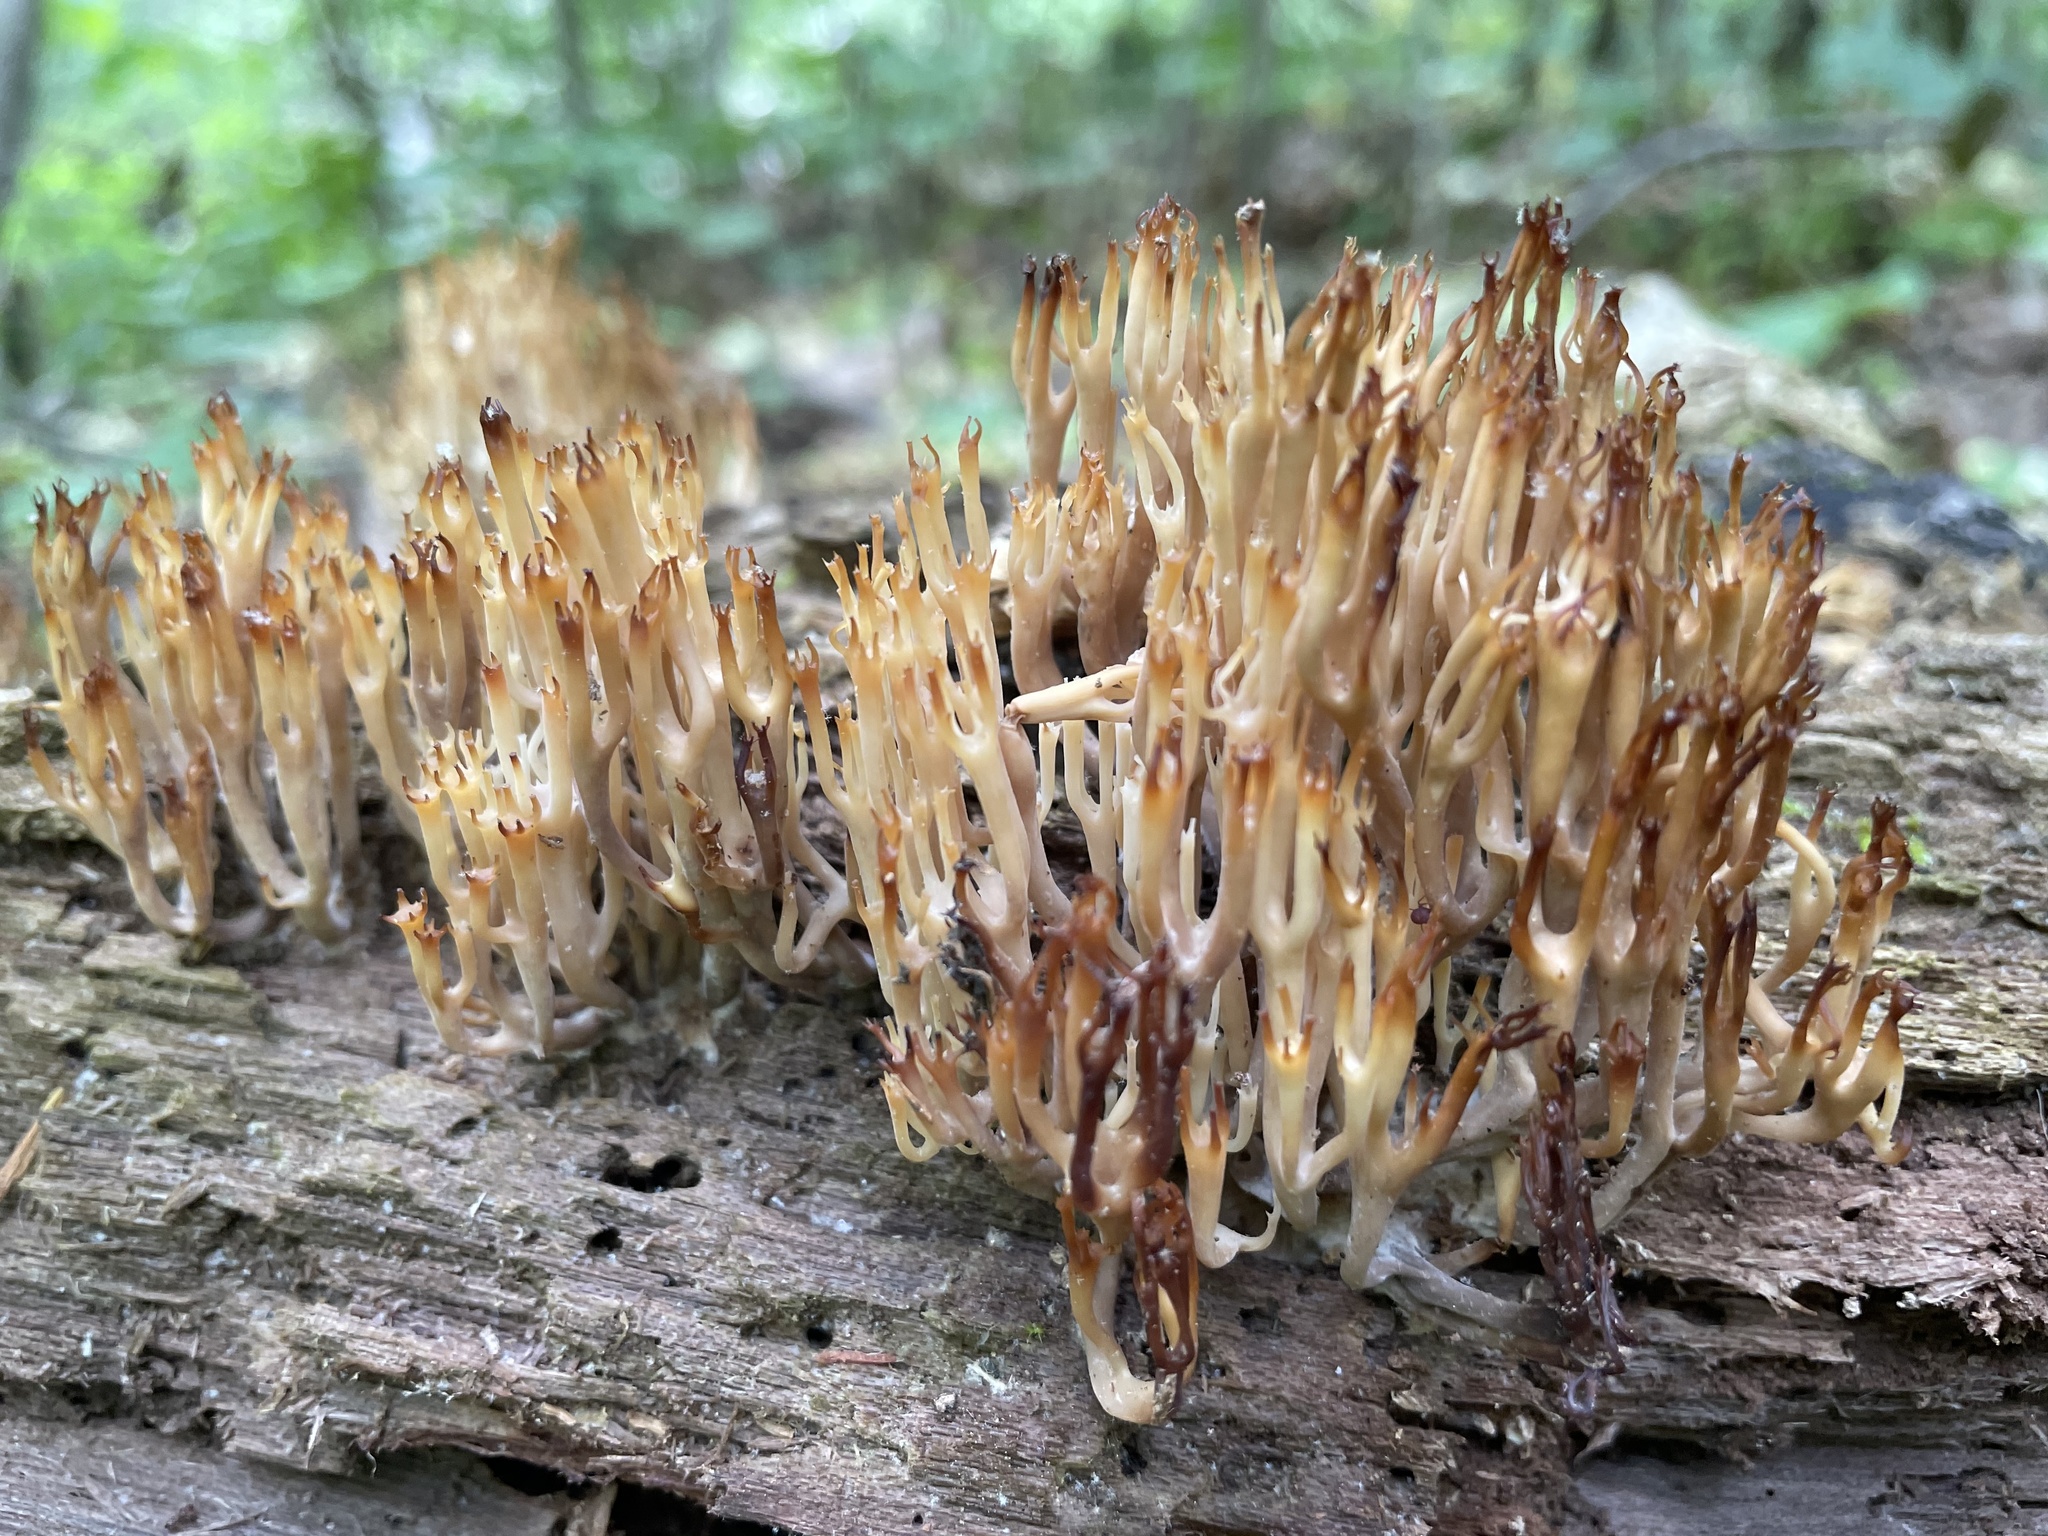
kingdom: Fungi
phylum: Basidiomycota
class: Agaricomycetes
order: Russulales
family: Auriscalpiaceae
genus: Artomyces
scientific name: Artomyces pyxidatus
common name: Crown-tipped coral fungus
